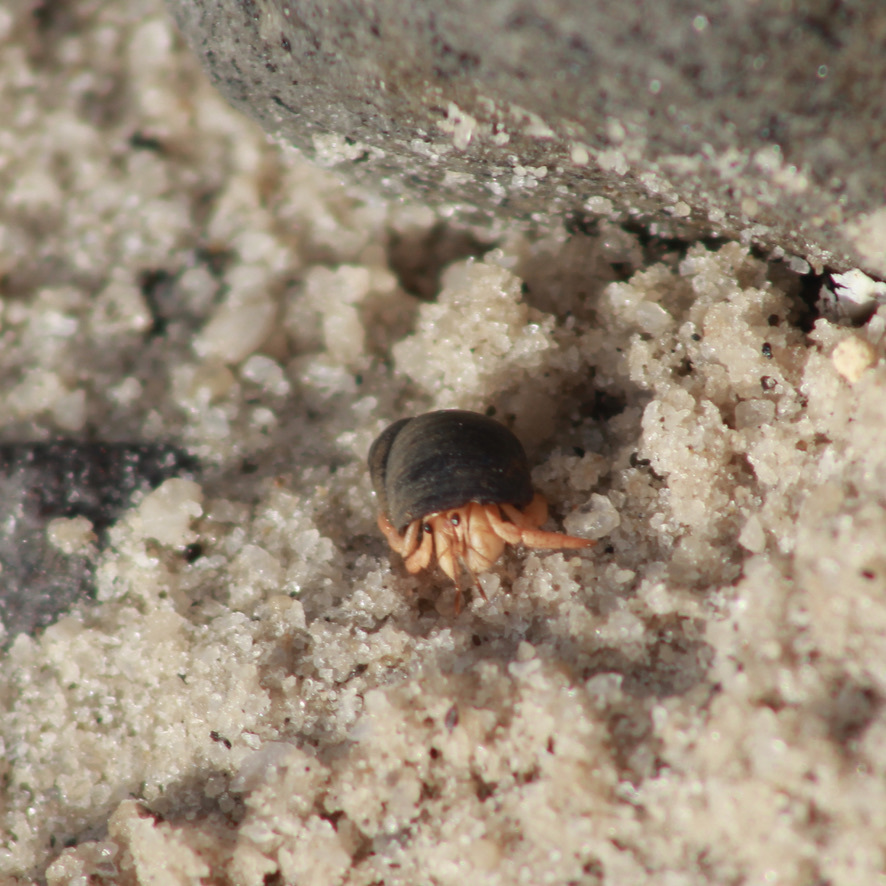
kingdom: Animalia
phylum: Arthropoda
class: Malacostraca
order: Decapoda
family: Coenobitidae
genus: Coenobita
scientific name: Coenobita clypeatus
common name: Caribbean hermit crab
